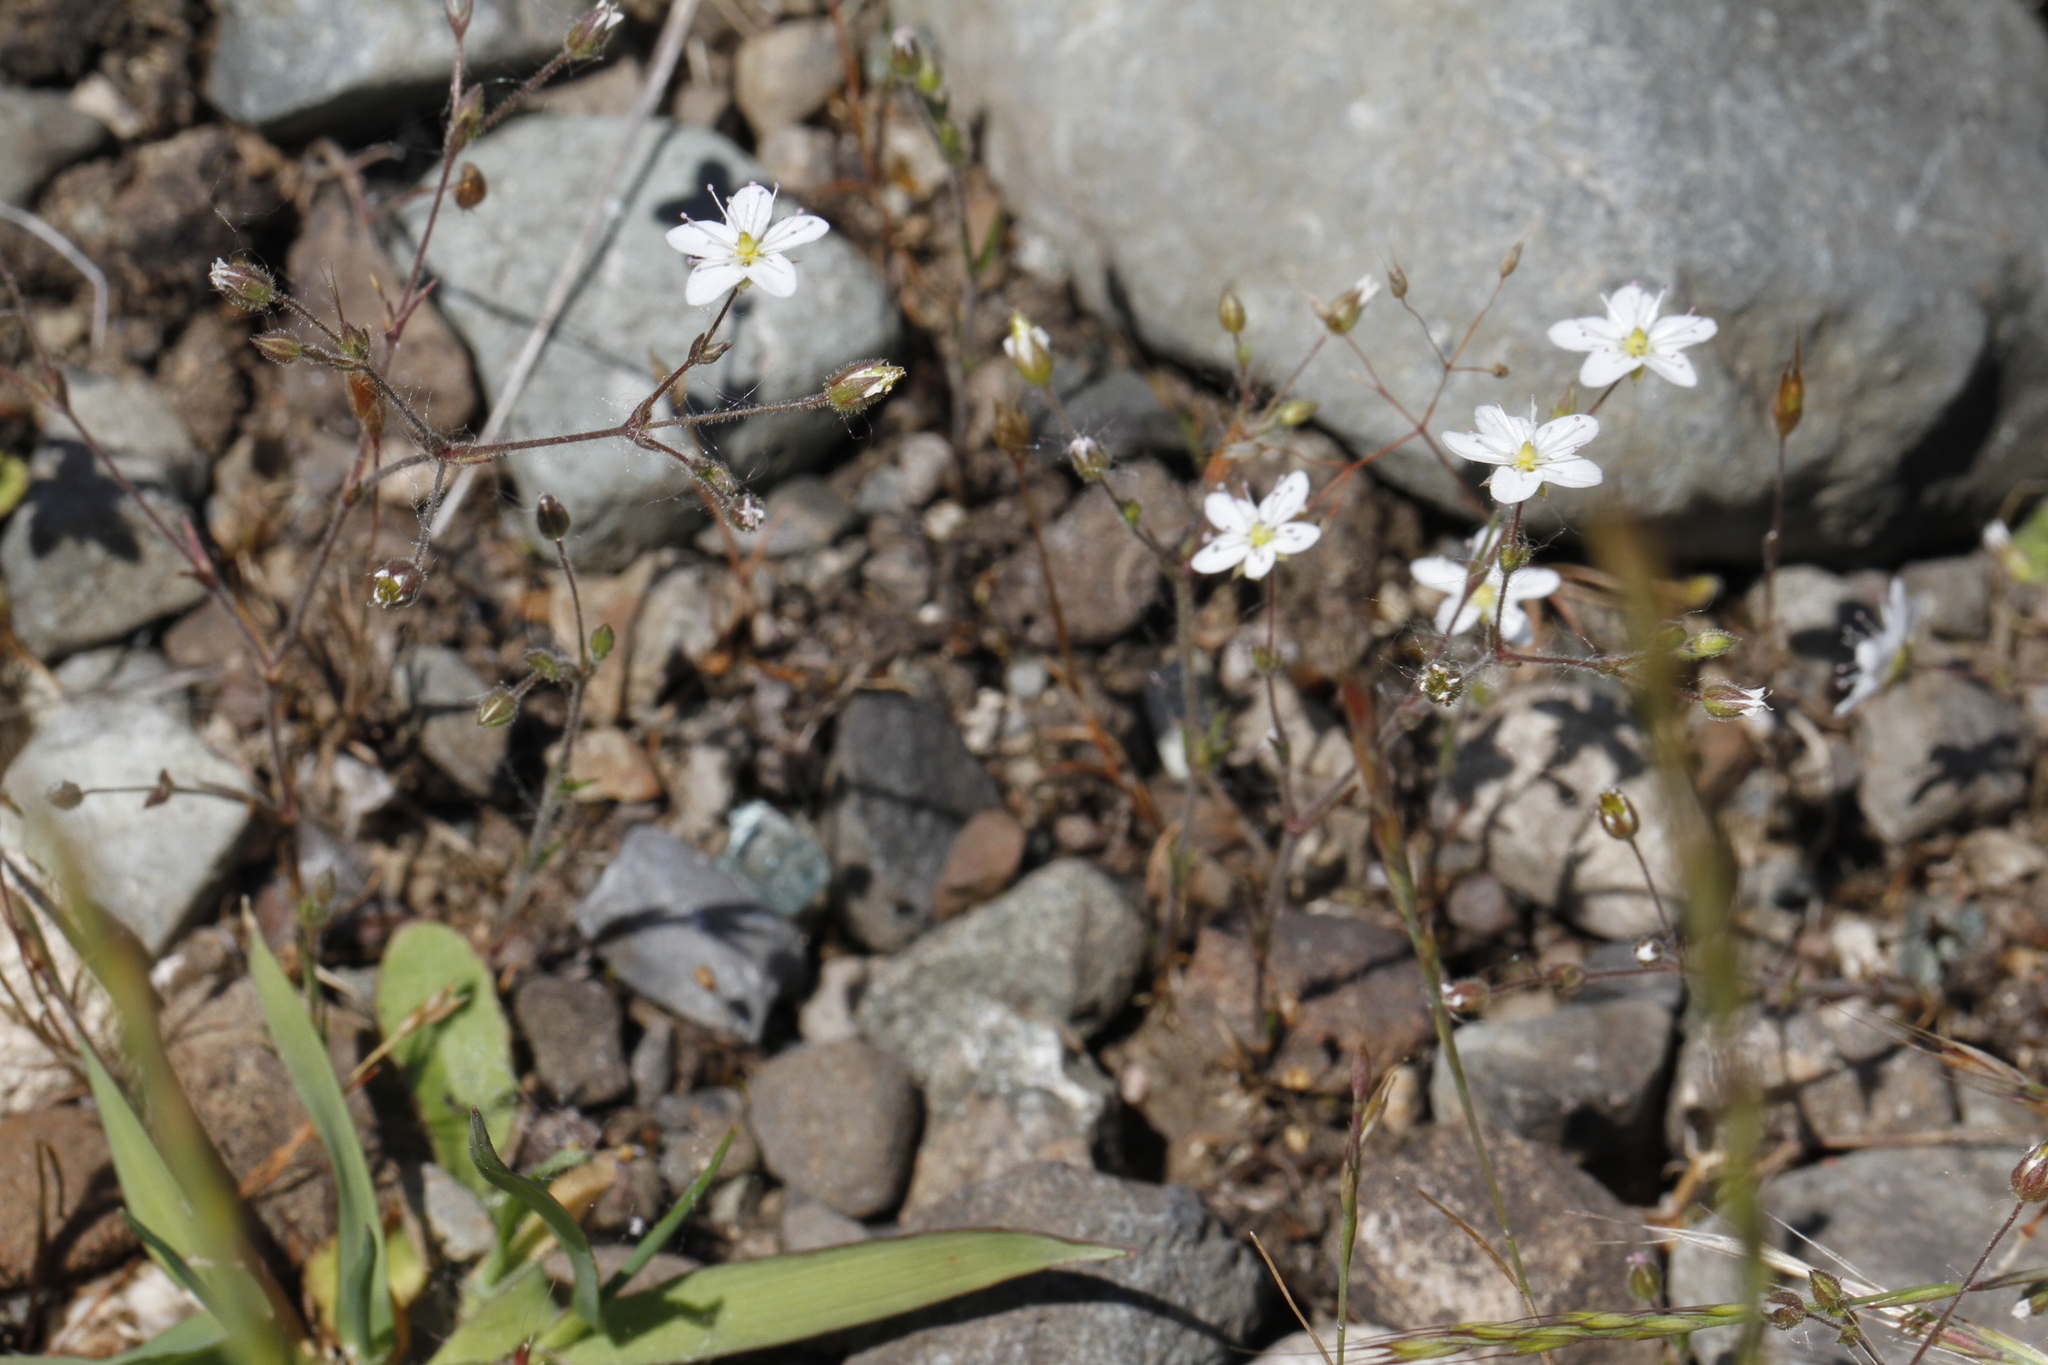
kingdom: Plantae
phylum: Tracheophyta
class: Magnoliopsida
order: Caryophyllales
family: Caryophyllaceae
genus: Sabulina
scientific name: Sabulina macra
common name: Slender sandwort
